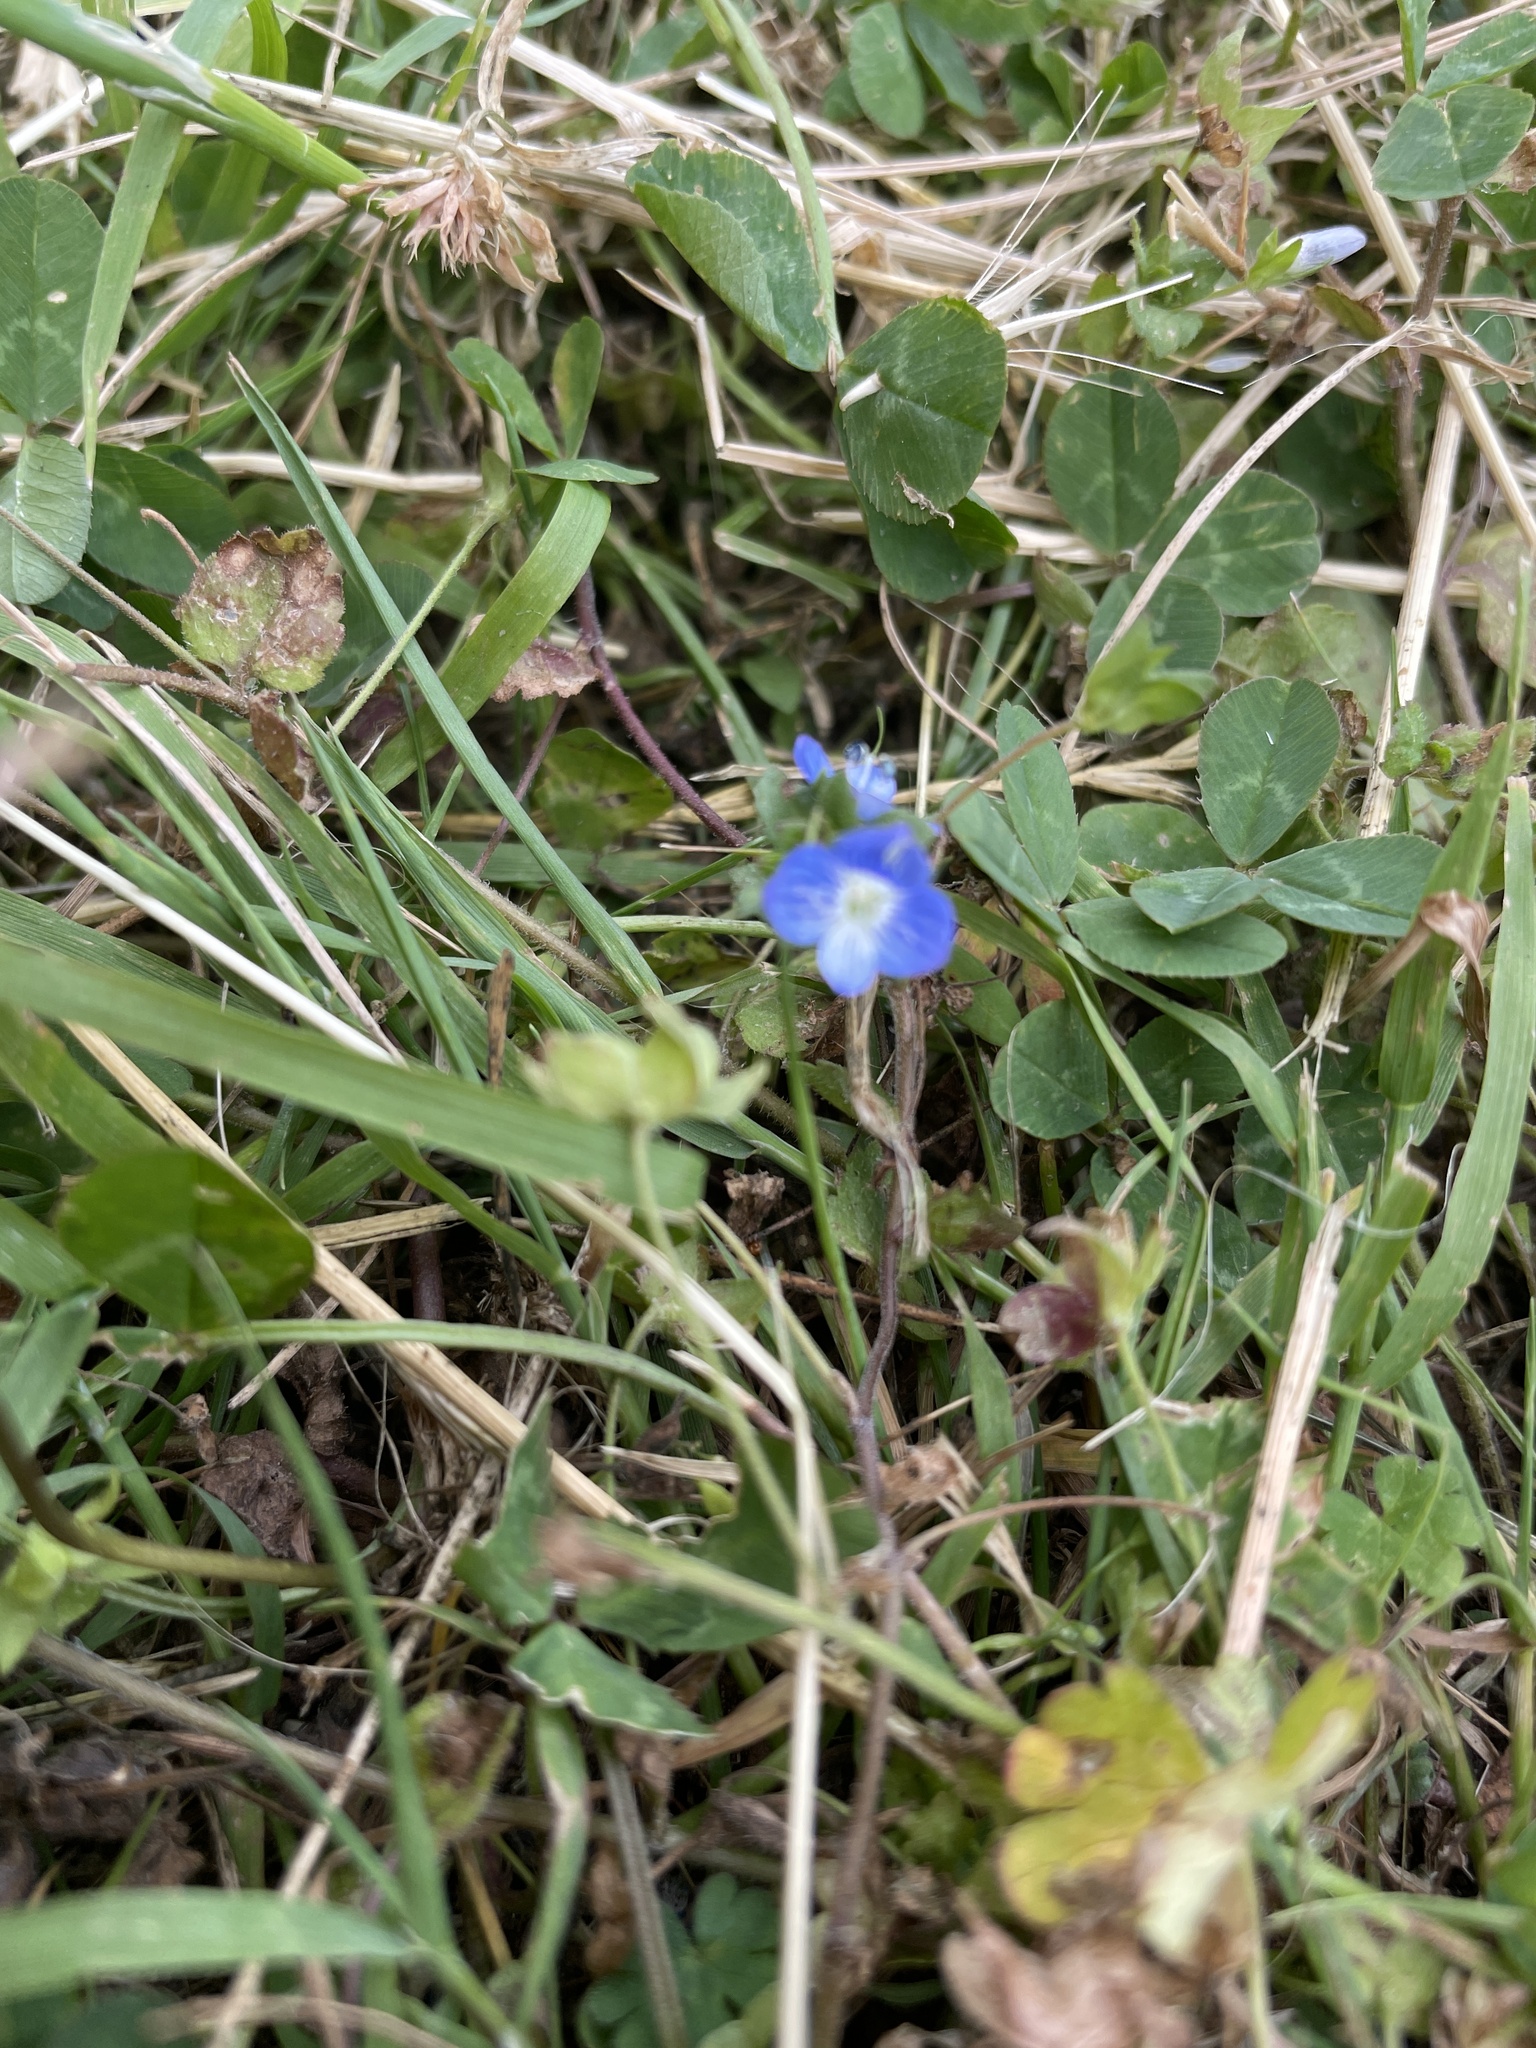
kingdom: Plantae
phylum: Tracheophyta
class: Magnoliopsida
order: Lamiales
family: Plantaginaceae
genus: Veronica
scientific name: Veronica persica
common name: Common field-speedwell
